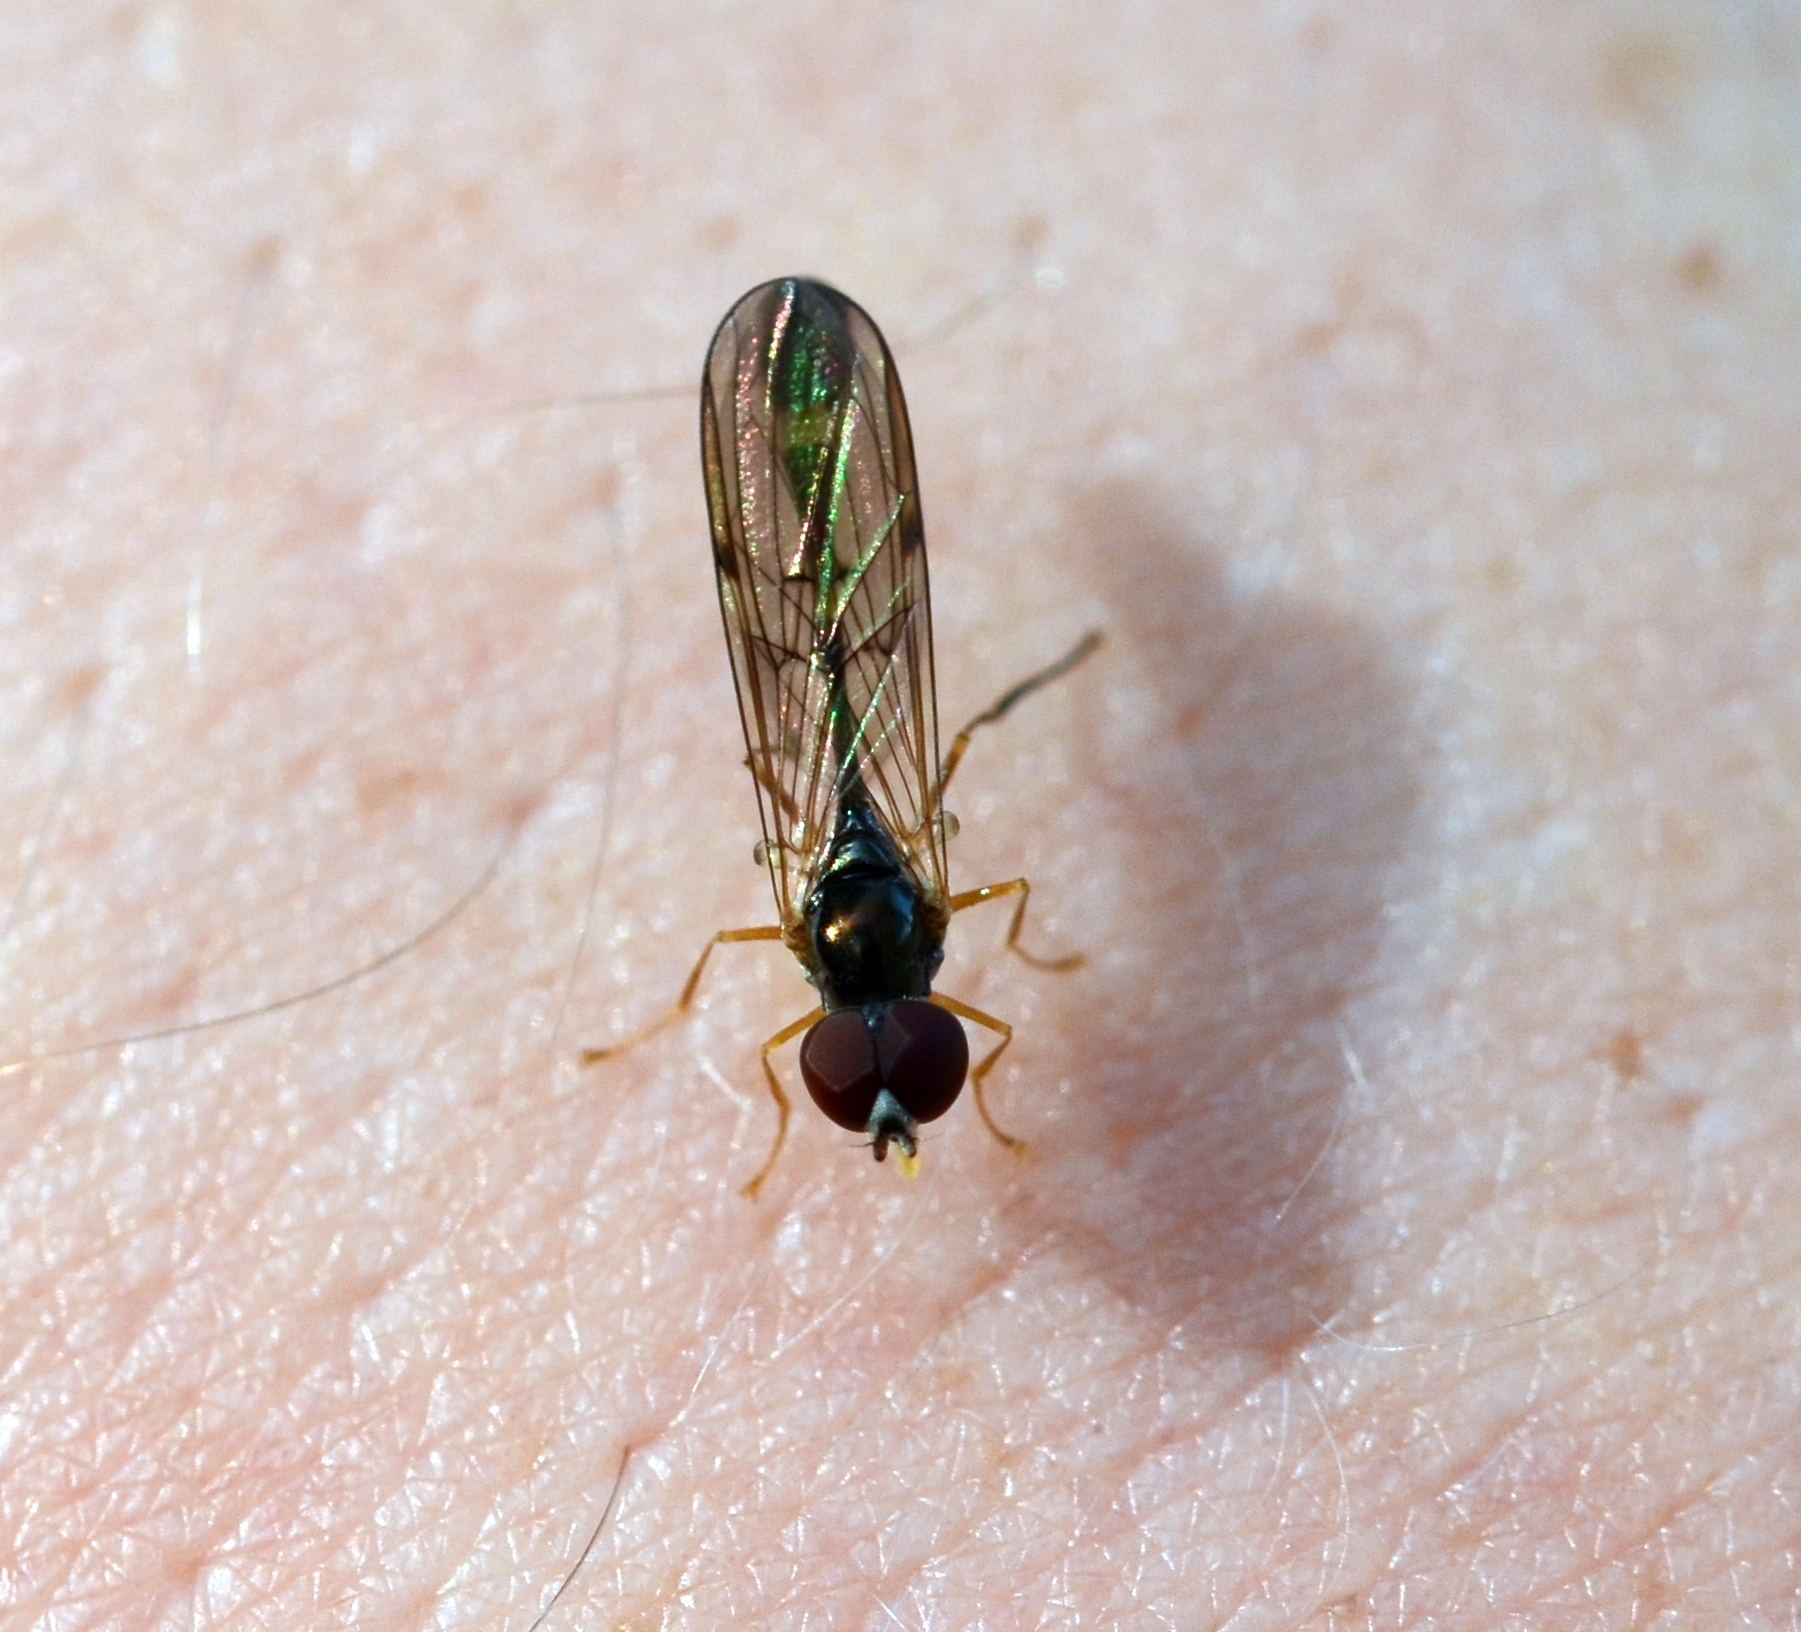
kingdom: Animalia
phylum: Arthropoda
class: Insecta
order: Diptera
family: Syrphidae
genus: Baccha
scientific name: Baccha elongata
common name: Common dainty
